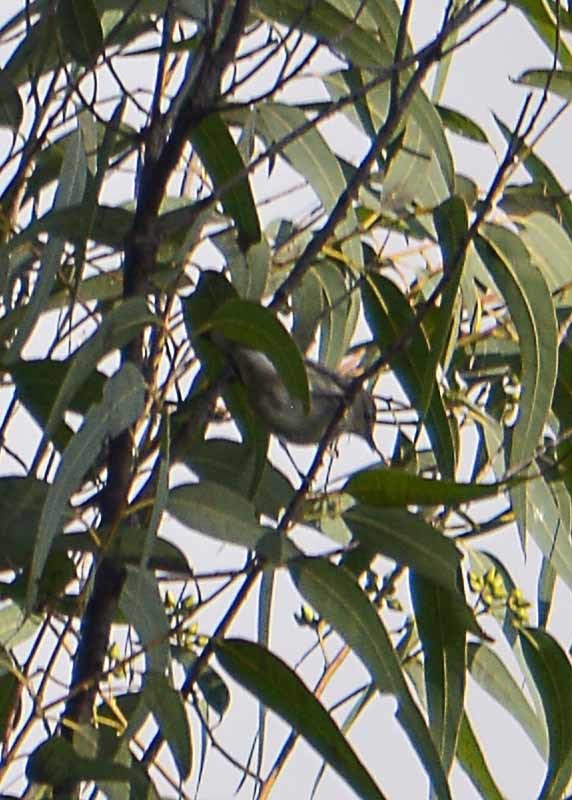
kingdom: Animalia
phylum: Chordata
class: Aves
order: Passeriformes
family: Vireonidae
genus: Vireo
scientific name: Vireo gilvus
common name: Warbling vireo
